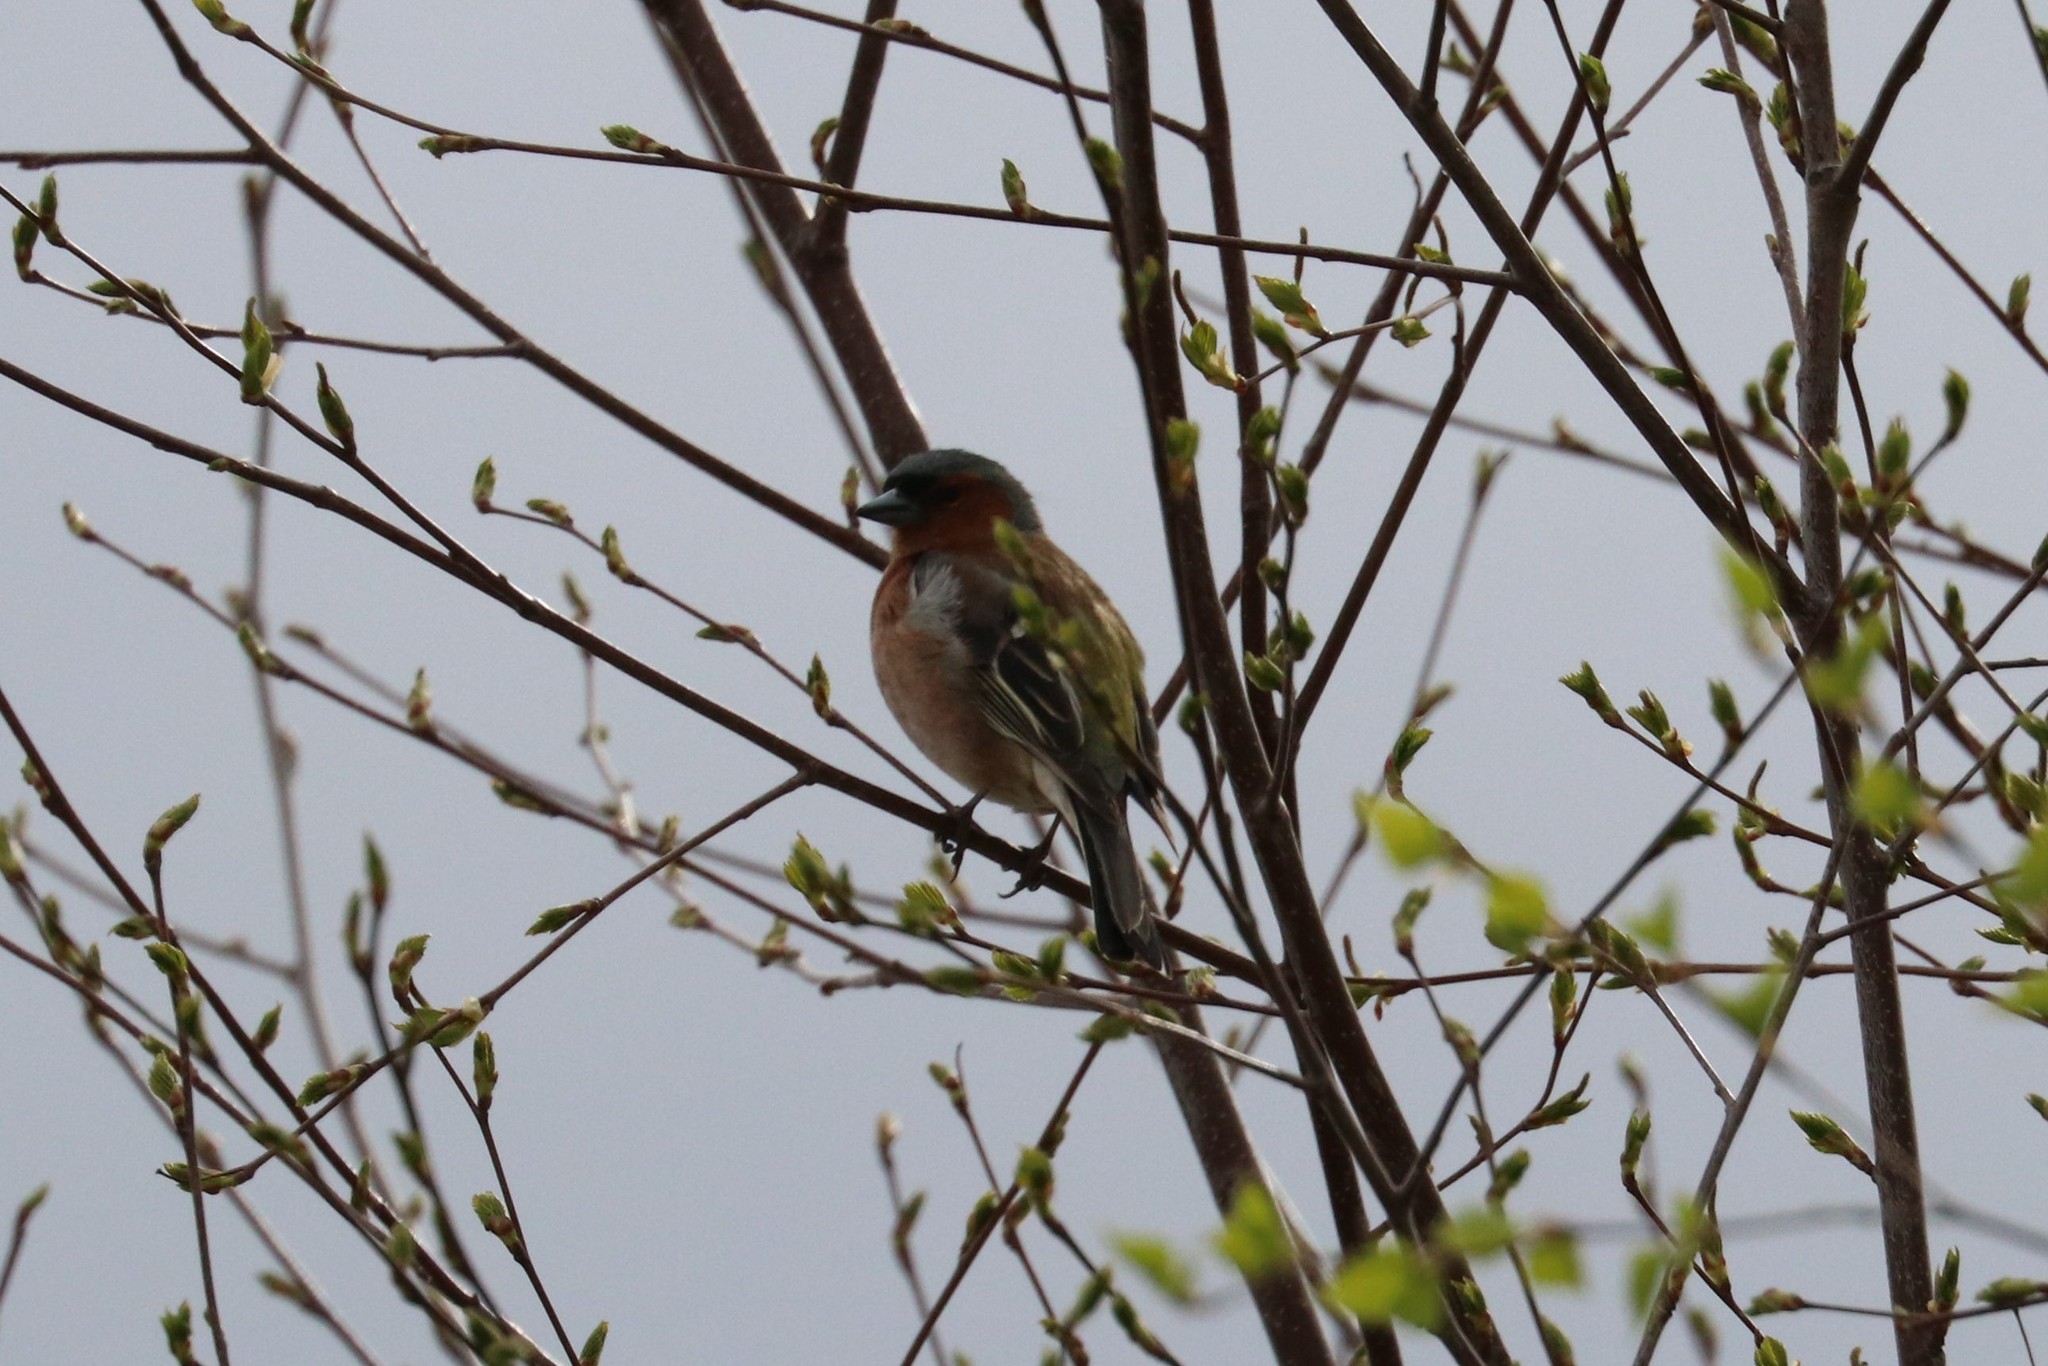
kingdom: Animalia
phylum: Chordata
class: Aves
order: Passeriformes
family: Fringillidae
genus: Fringilla
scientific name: Fringilla coelebs
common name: Common chaffinch
